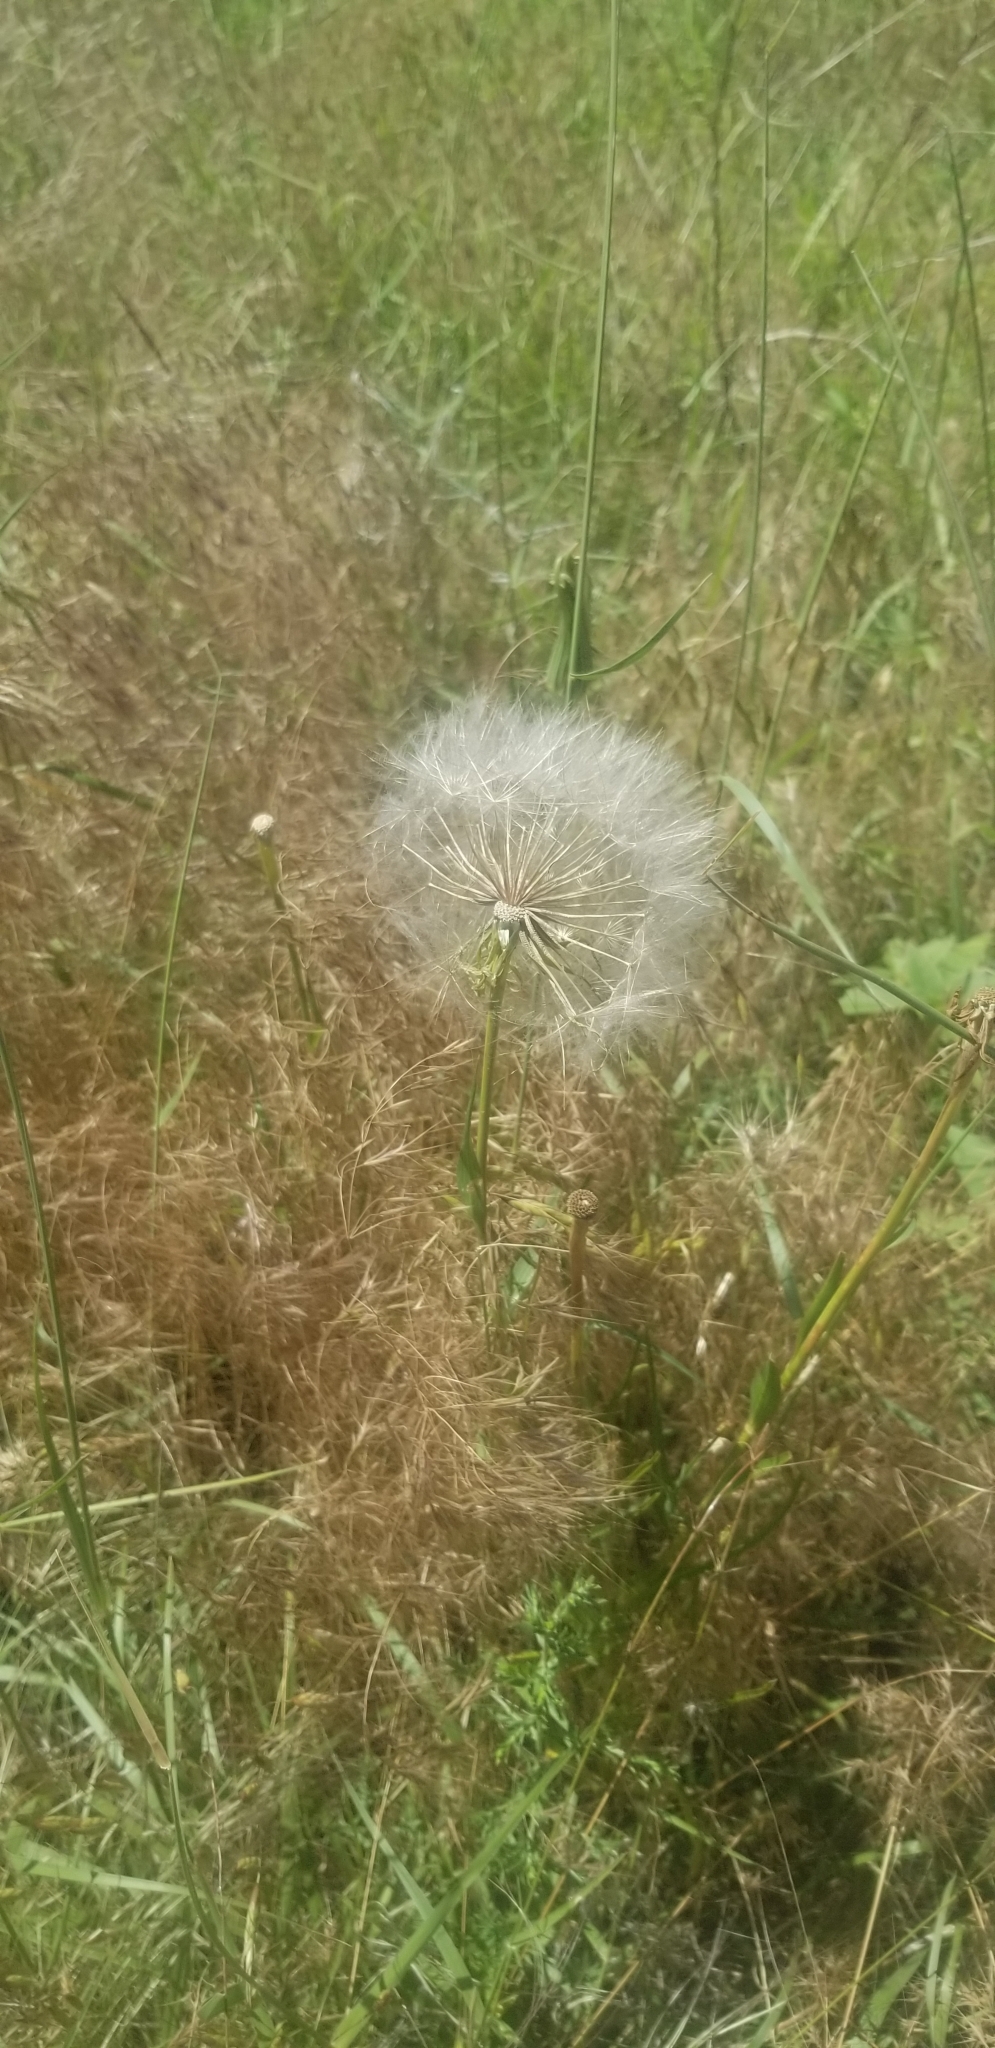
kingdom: Plantae
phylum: Tracheophyta
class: Magnoliopsida
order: Asterales
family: Asteraceae
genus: Tragopogon
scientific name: Tragopogon dubius
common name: Yellow salsify
